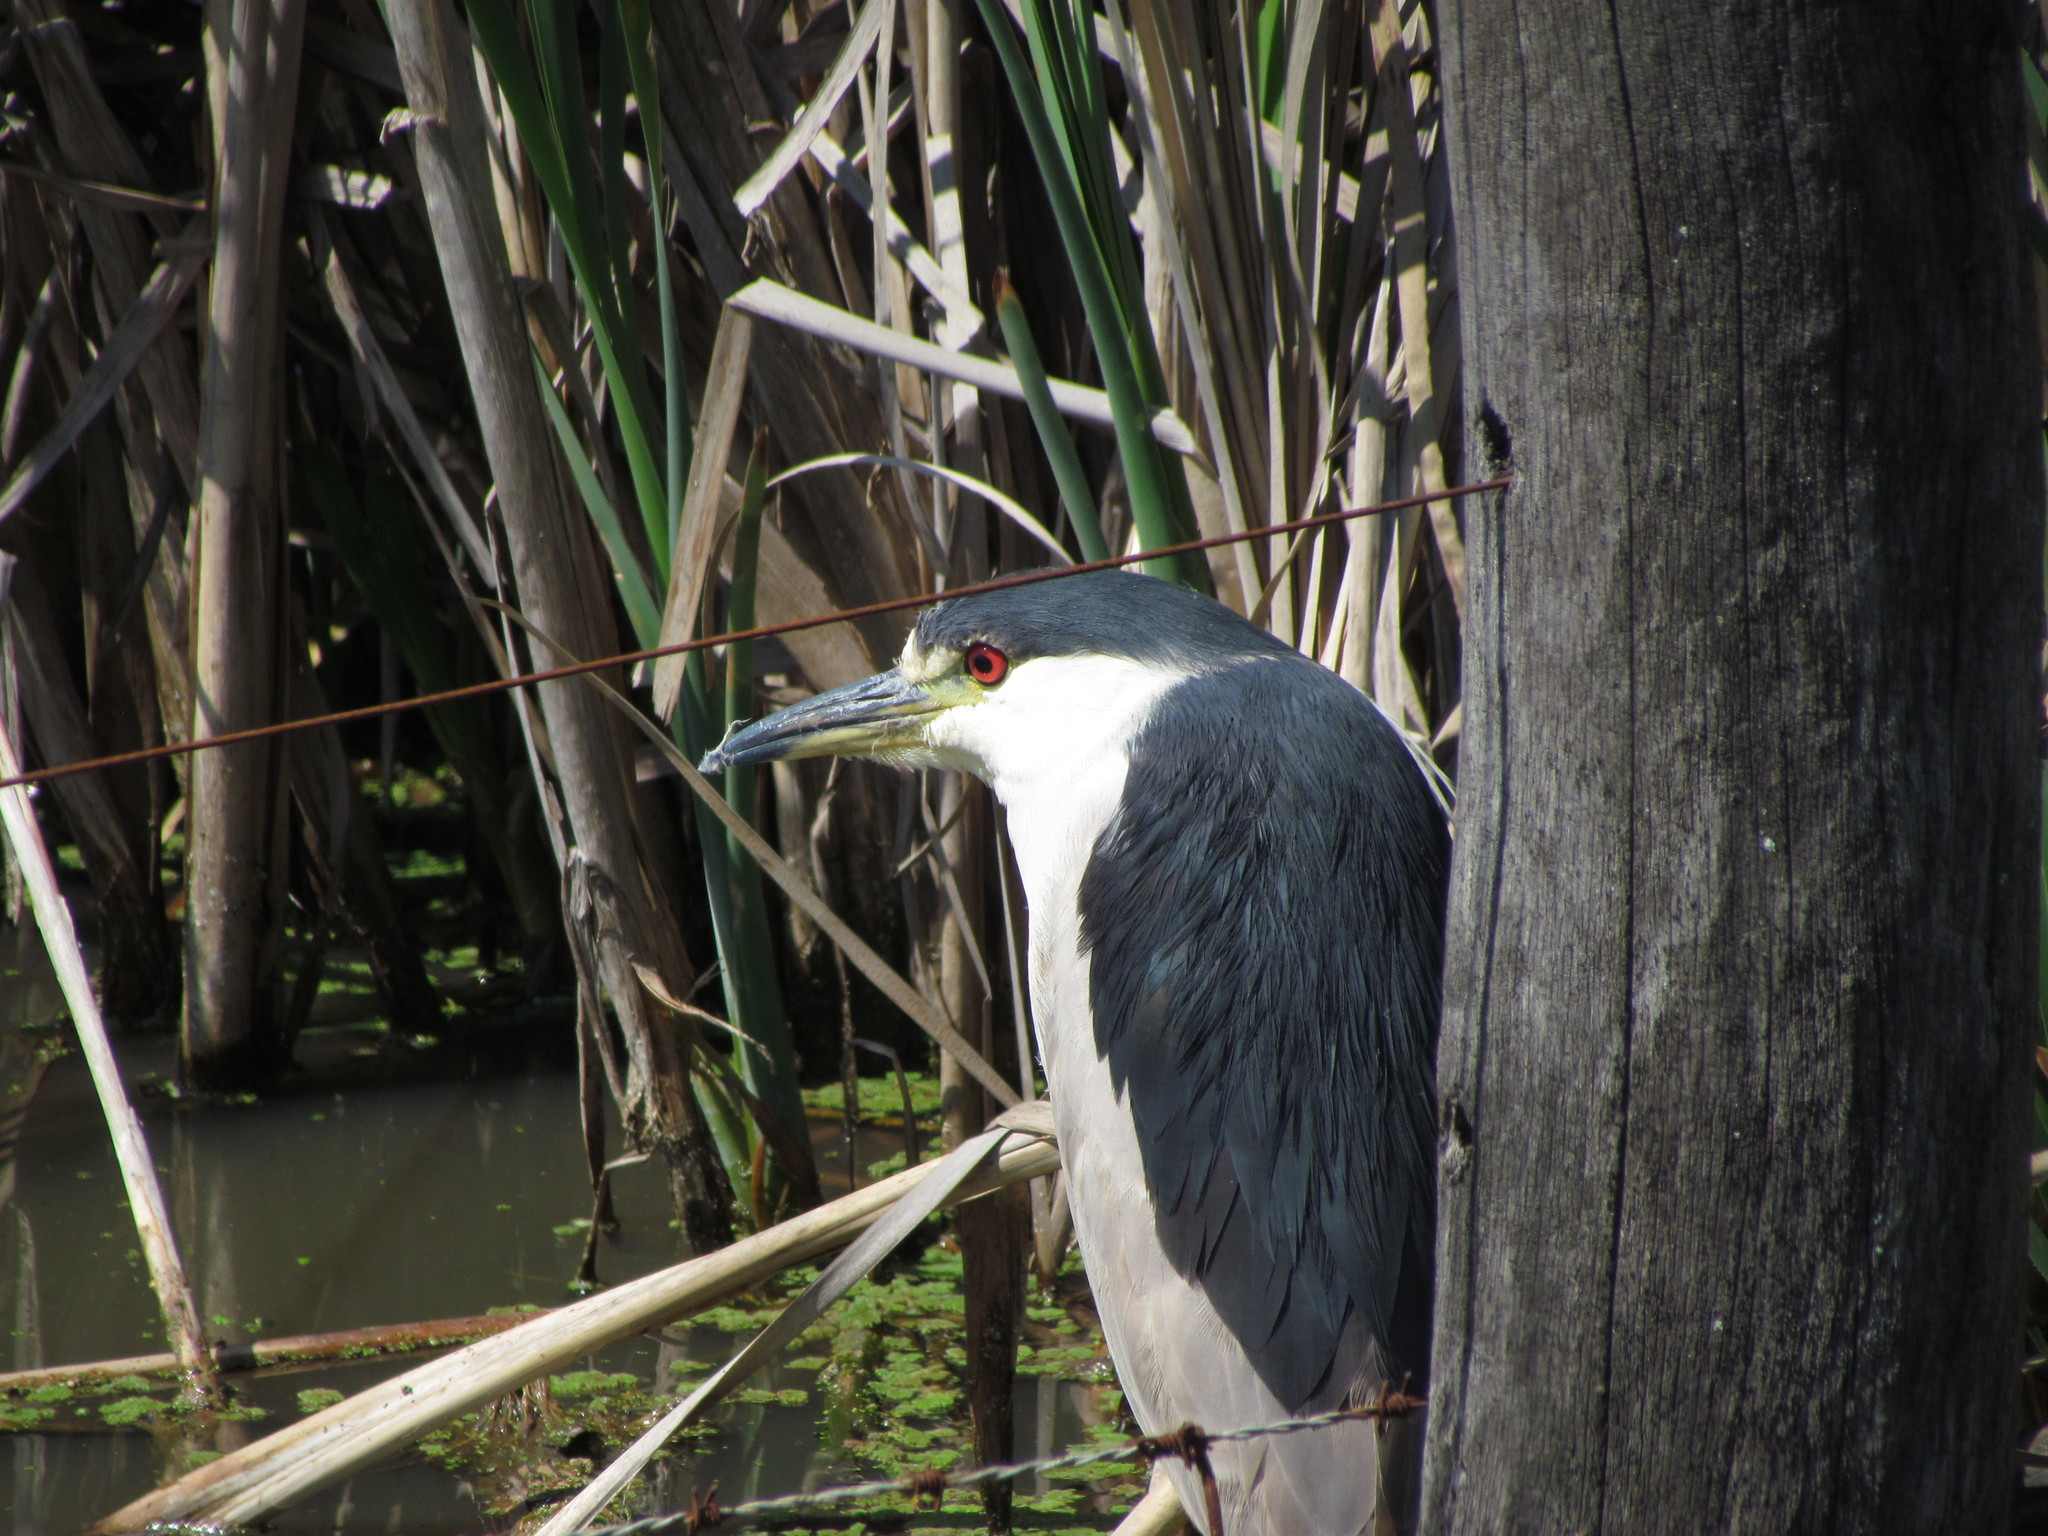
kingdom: Animalia
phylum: Chordata
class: Aves
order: Pelecaniformes
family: Ardeidae
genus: Nycticorax
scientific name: Nycticorax nycticorax
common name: Black-crowned night heron
